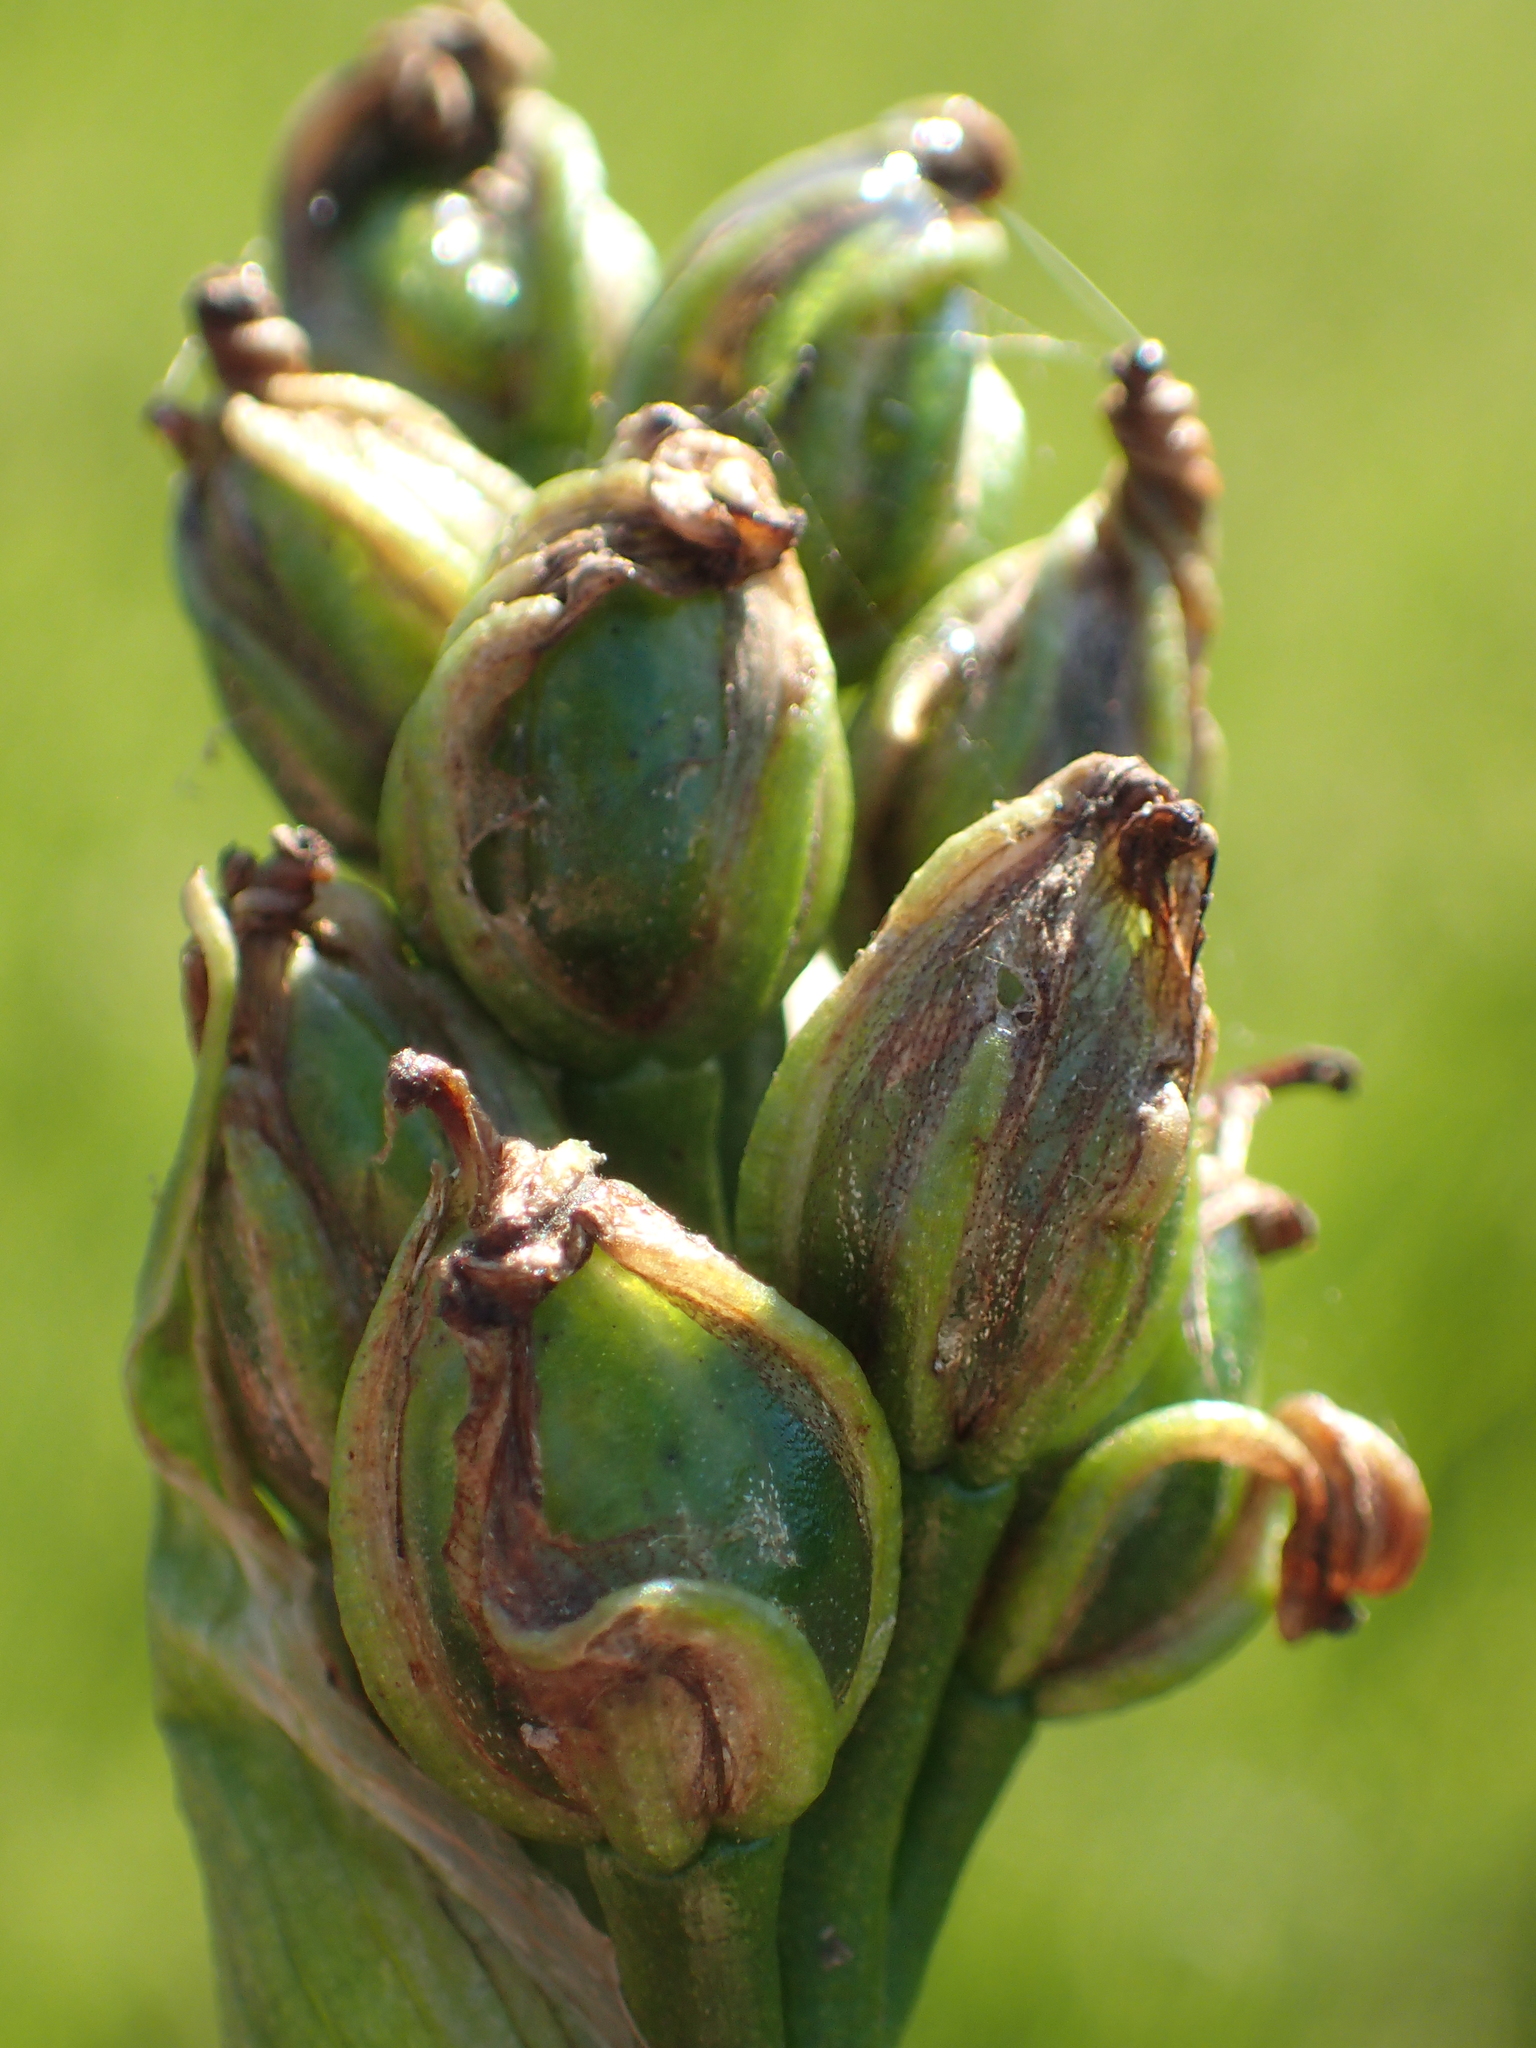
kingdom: Plantae
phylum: Tracheophyta
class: Liliopsida
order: Commelinales
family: Pontederiaceae
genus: Pontederia
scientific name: Pontederia vaginalis
